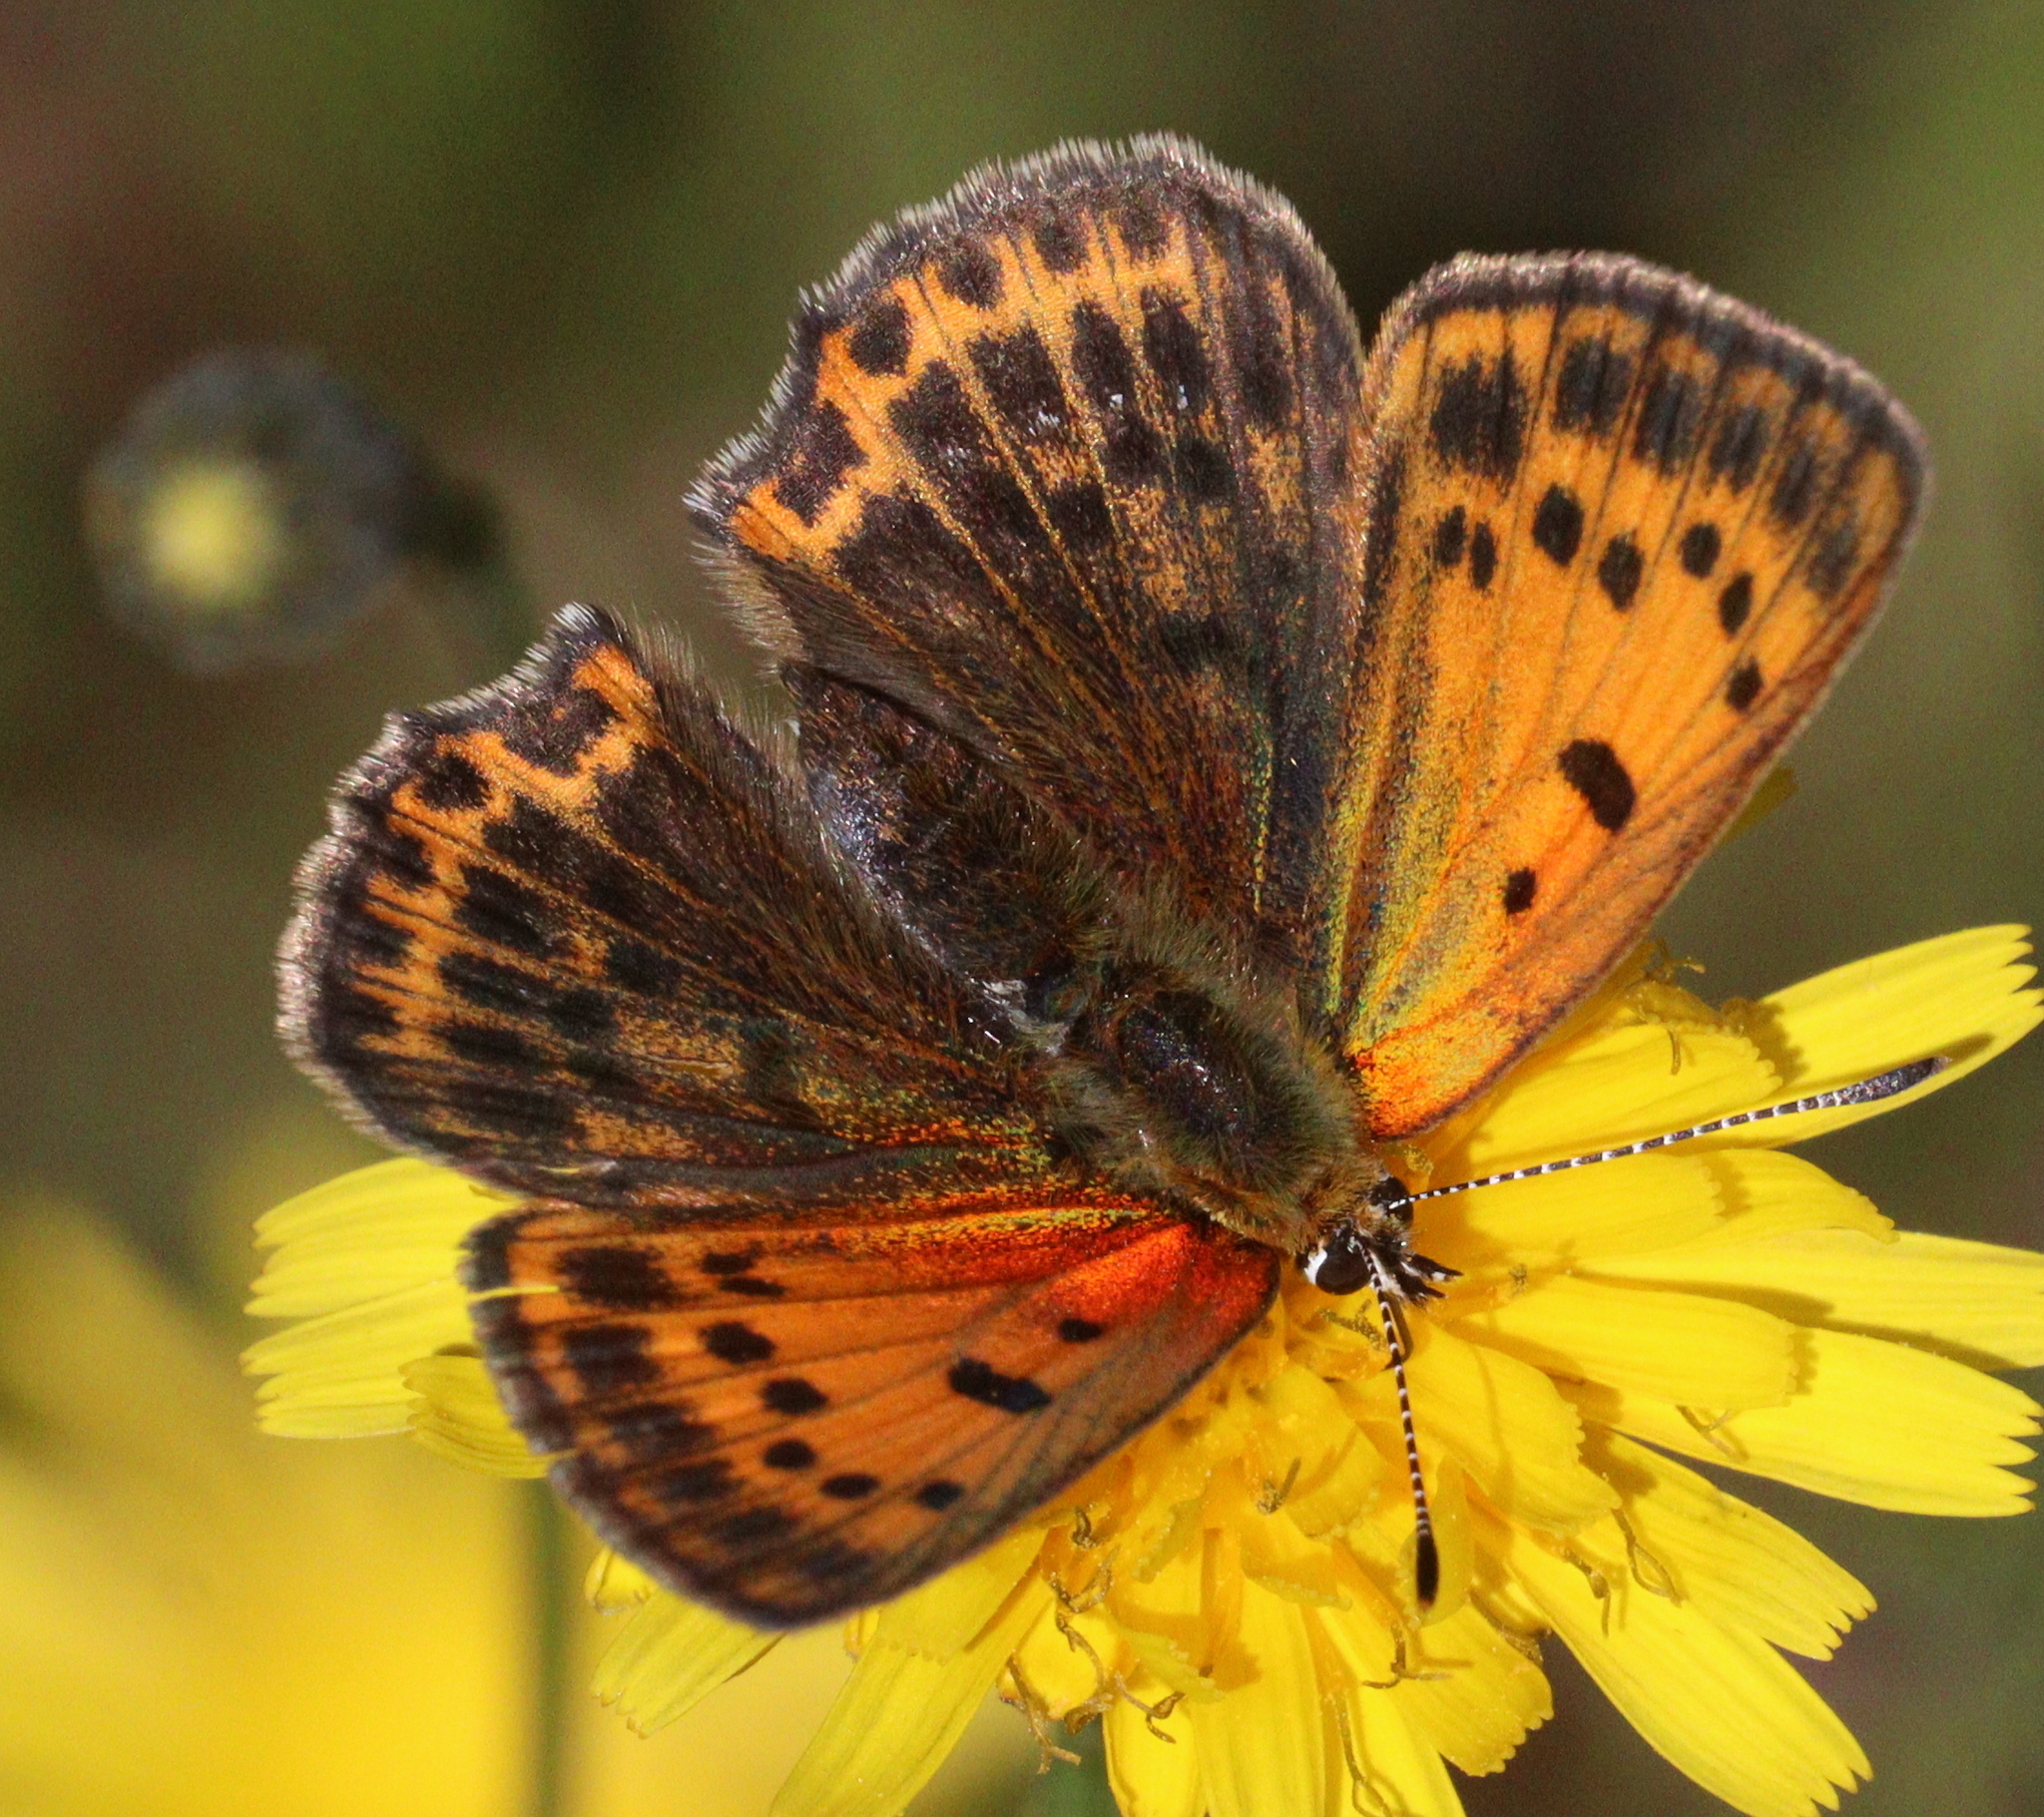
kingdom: Animalia
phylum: Arthropoda
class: Insecta
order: Lepidoptera
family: Lycaenidae
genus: Lycaena
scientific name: Lycaena virgaureae
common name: Scarce copper
